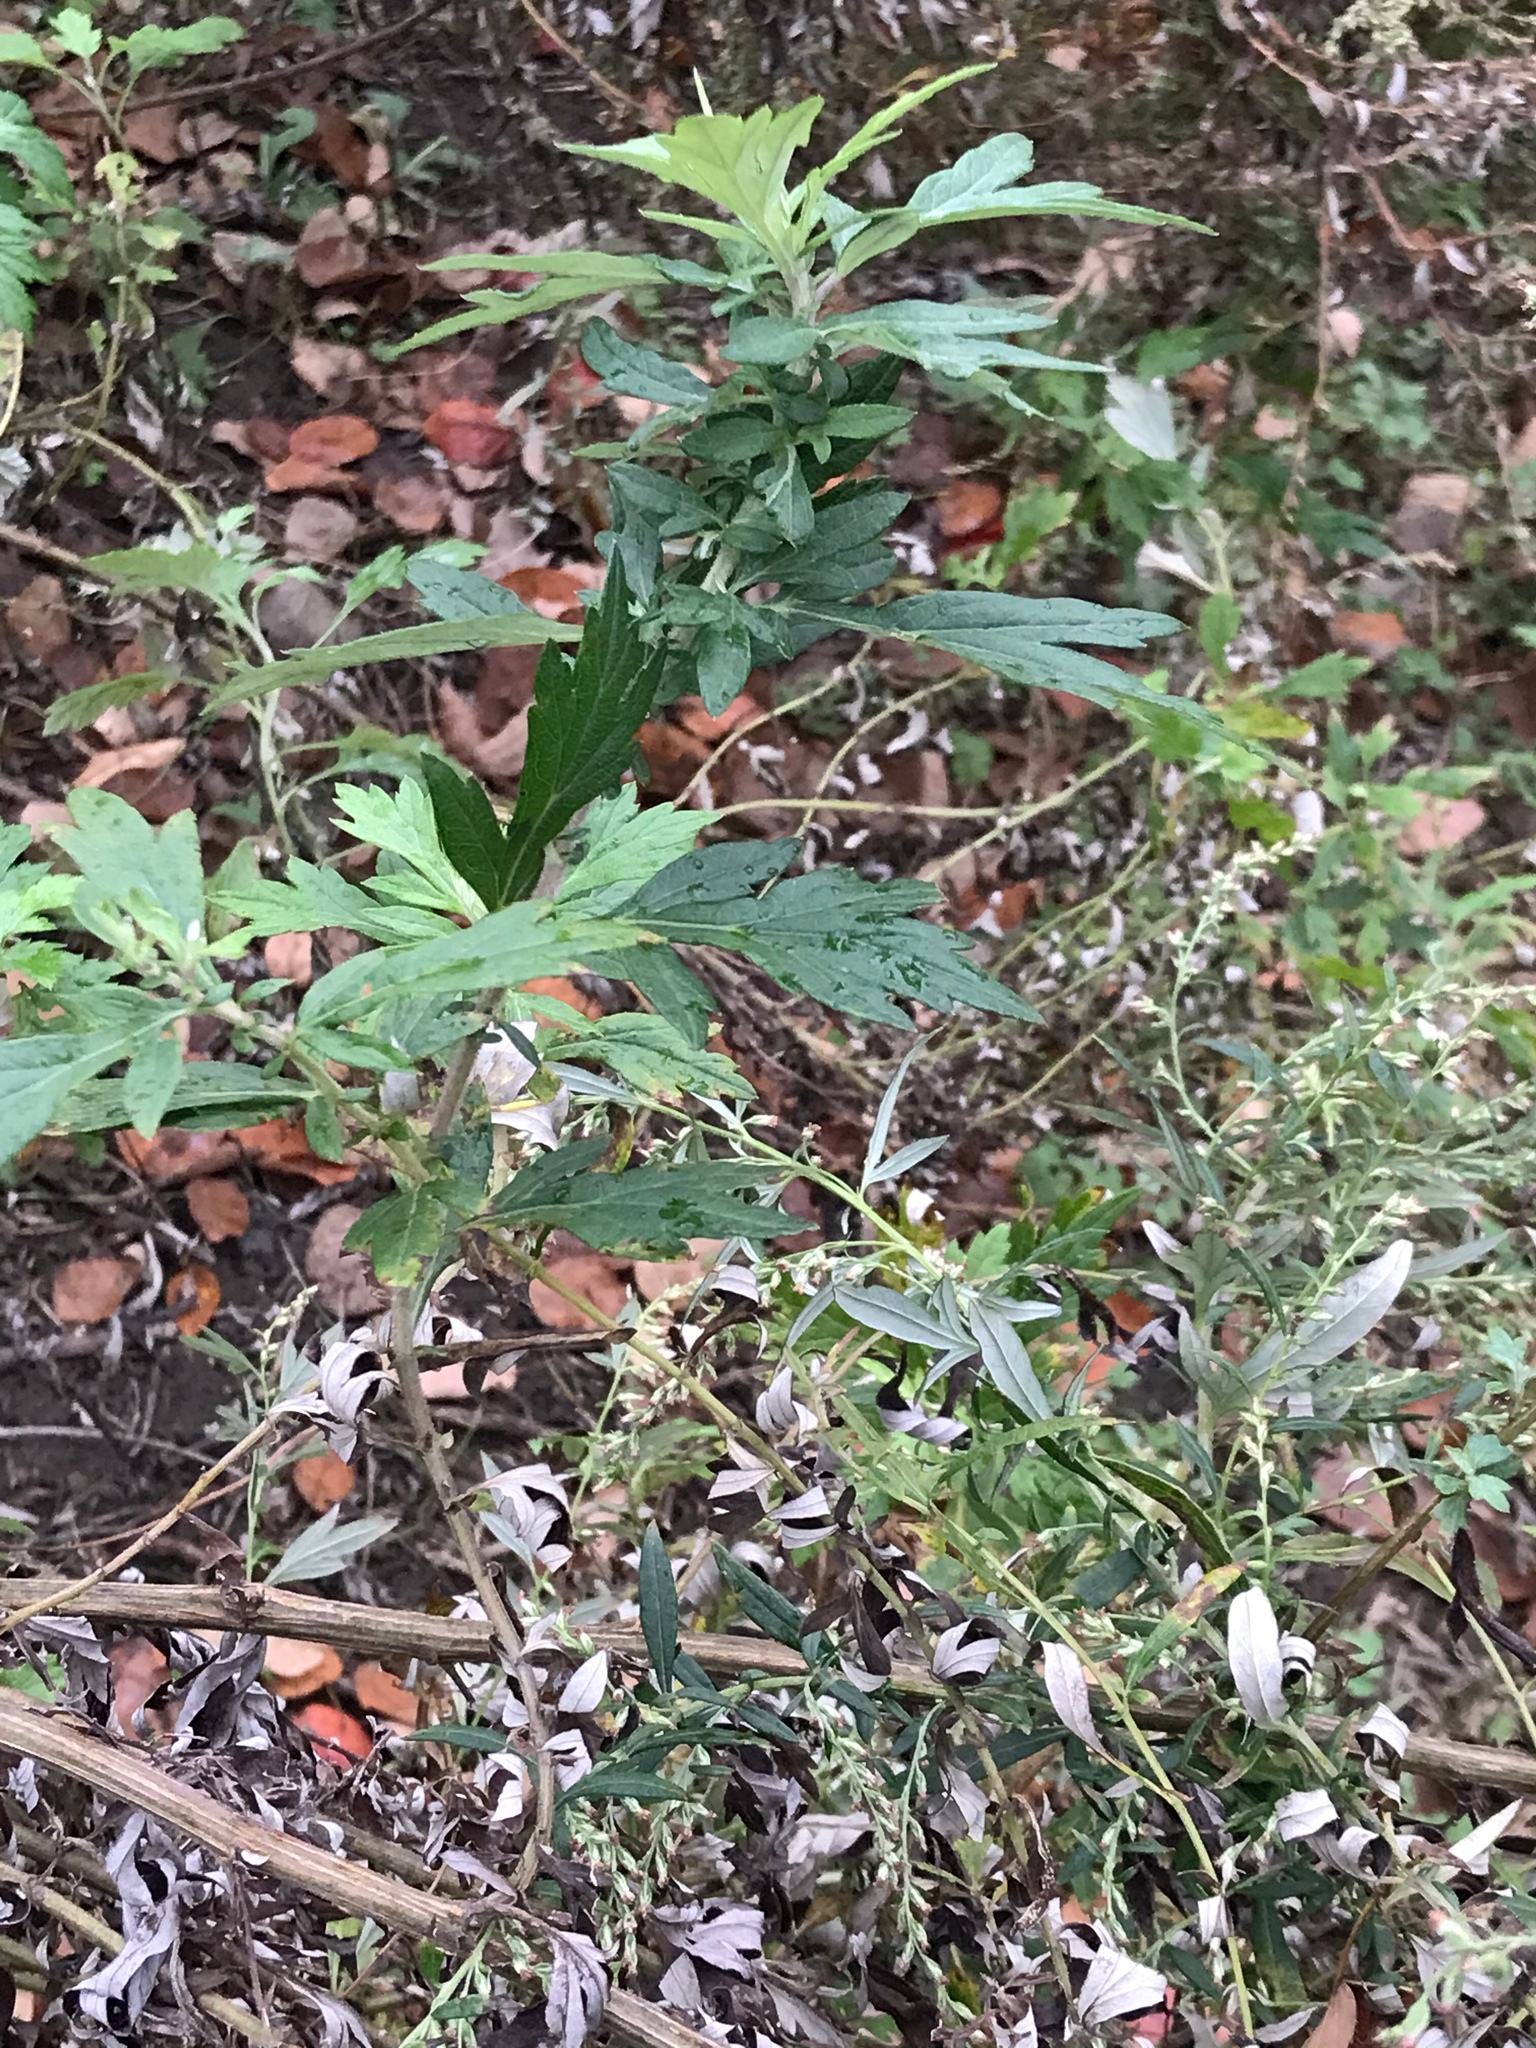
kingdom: Plantae
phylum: Tracheophyta
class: Magnoliopsida
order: Asterales
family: Asteraceae
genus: Artemisia
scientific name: Artemisia vulgaris
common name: Mugwort
